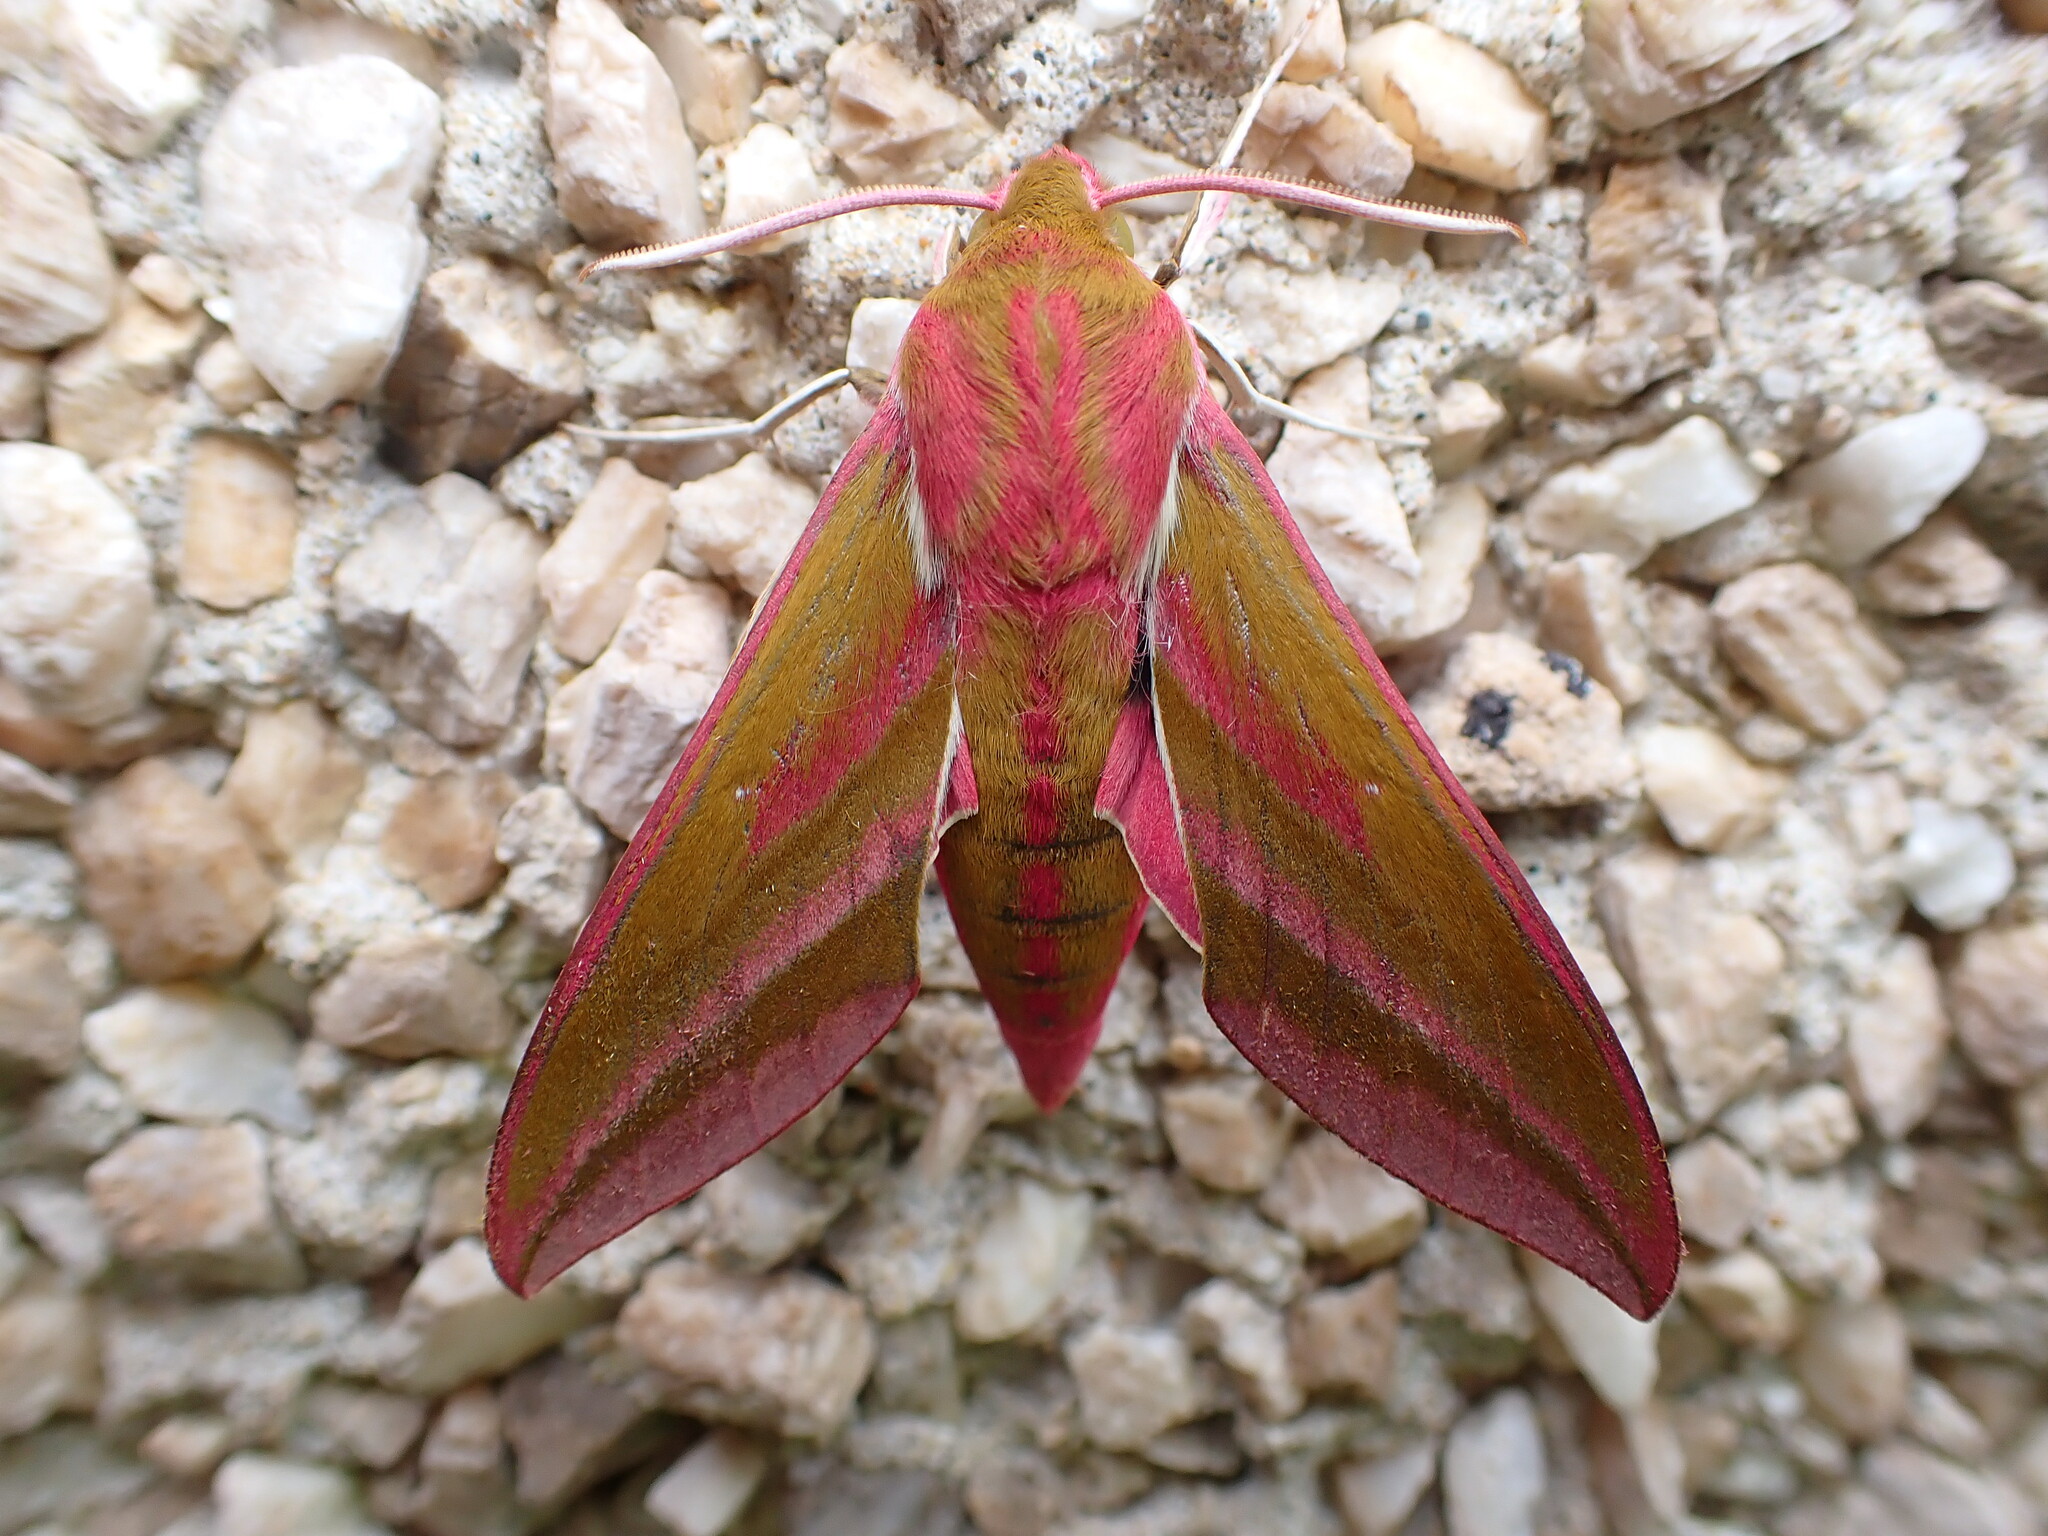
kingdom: Animalia
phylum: Arthropoda
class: Insecta
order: Lepidoptera
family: Sphingidae
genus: Deilephila
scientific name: Deilephila elpenor
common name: Elephant hawk-moth
